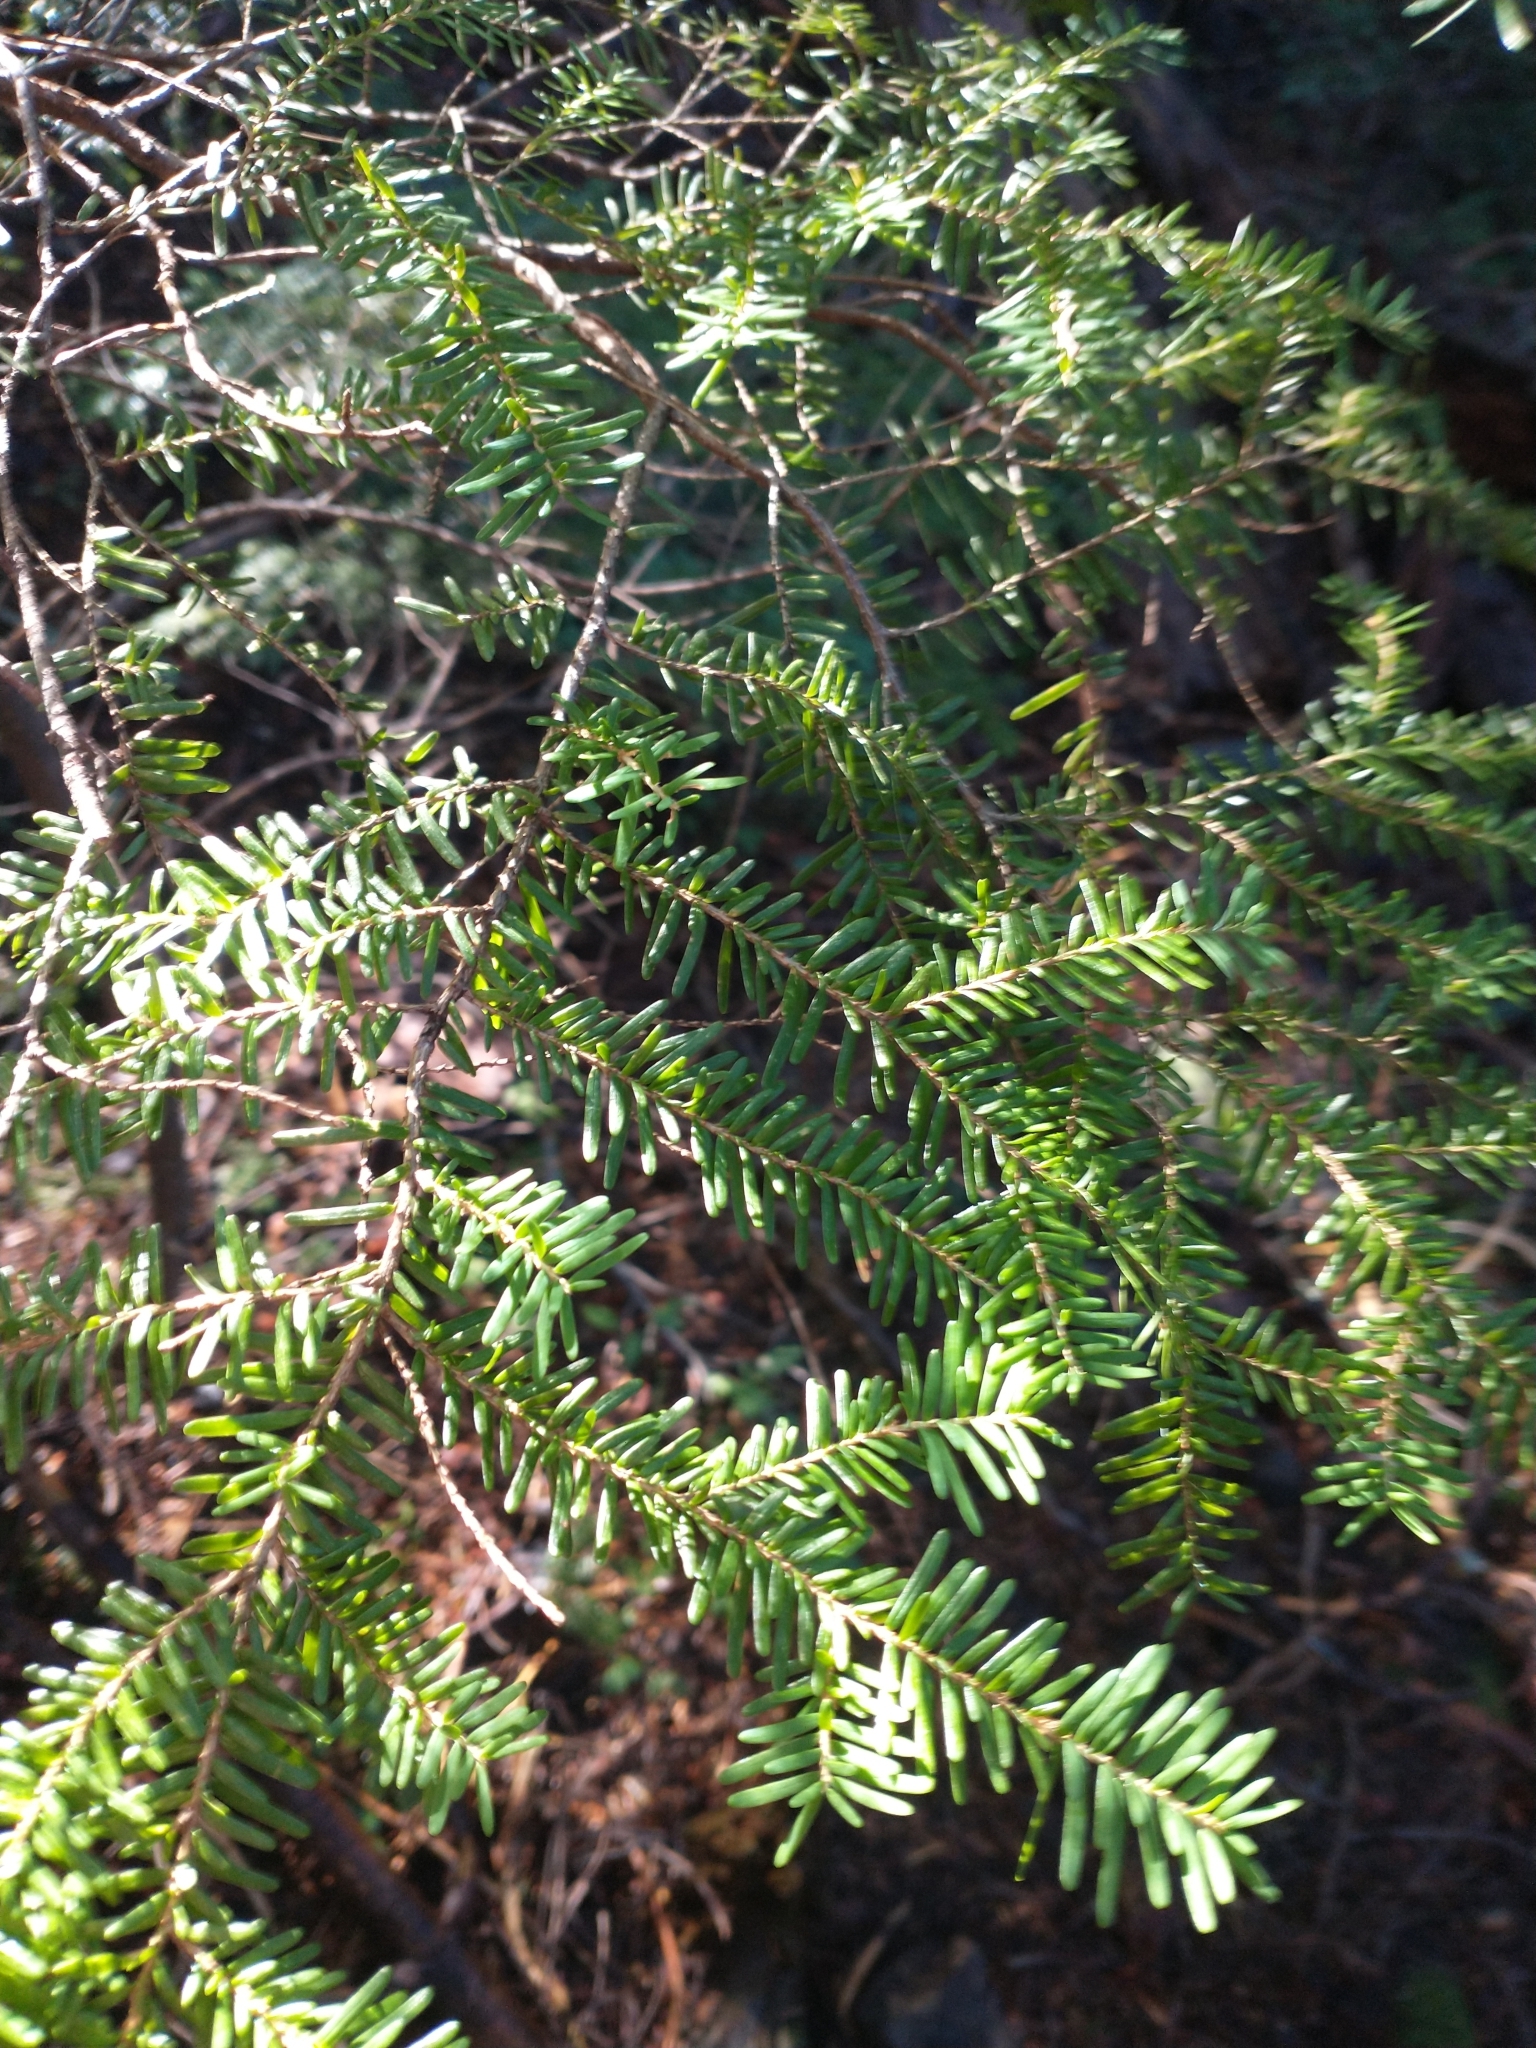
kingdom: Plantae
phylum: Tracheophyta
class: Pinopsida
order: Pinales
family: Pinaceae
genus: Tsuga
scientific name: Tsuga heterophylla
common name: Western hemlock
